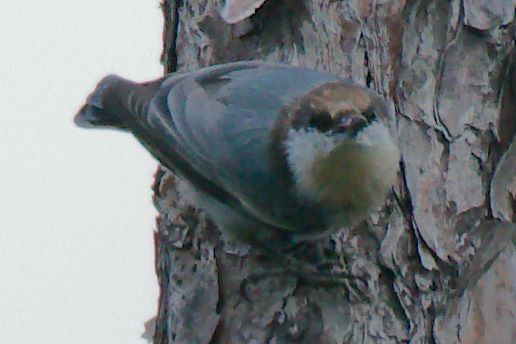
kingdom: Animalia
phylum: Chordata
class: Aves
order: Passeriformes
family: Sittidae
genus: Sitta
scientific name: Sitta pusilla
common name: Brown-headed nuthatch
